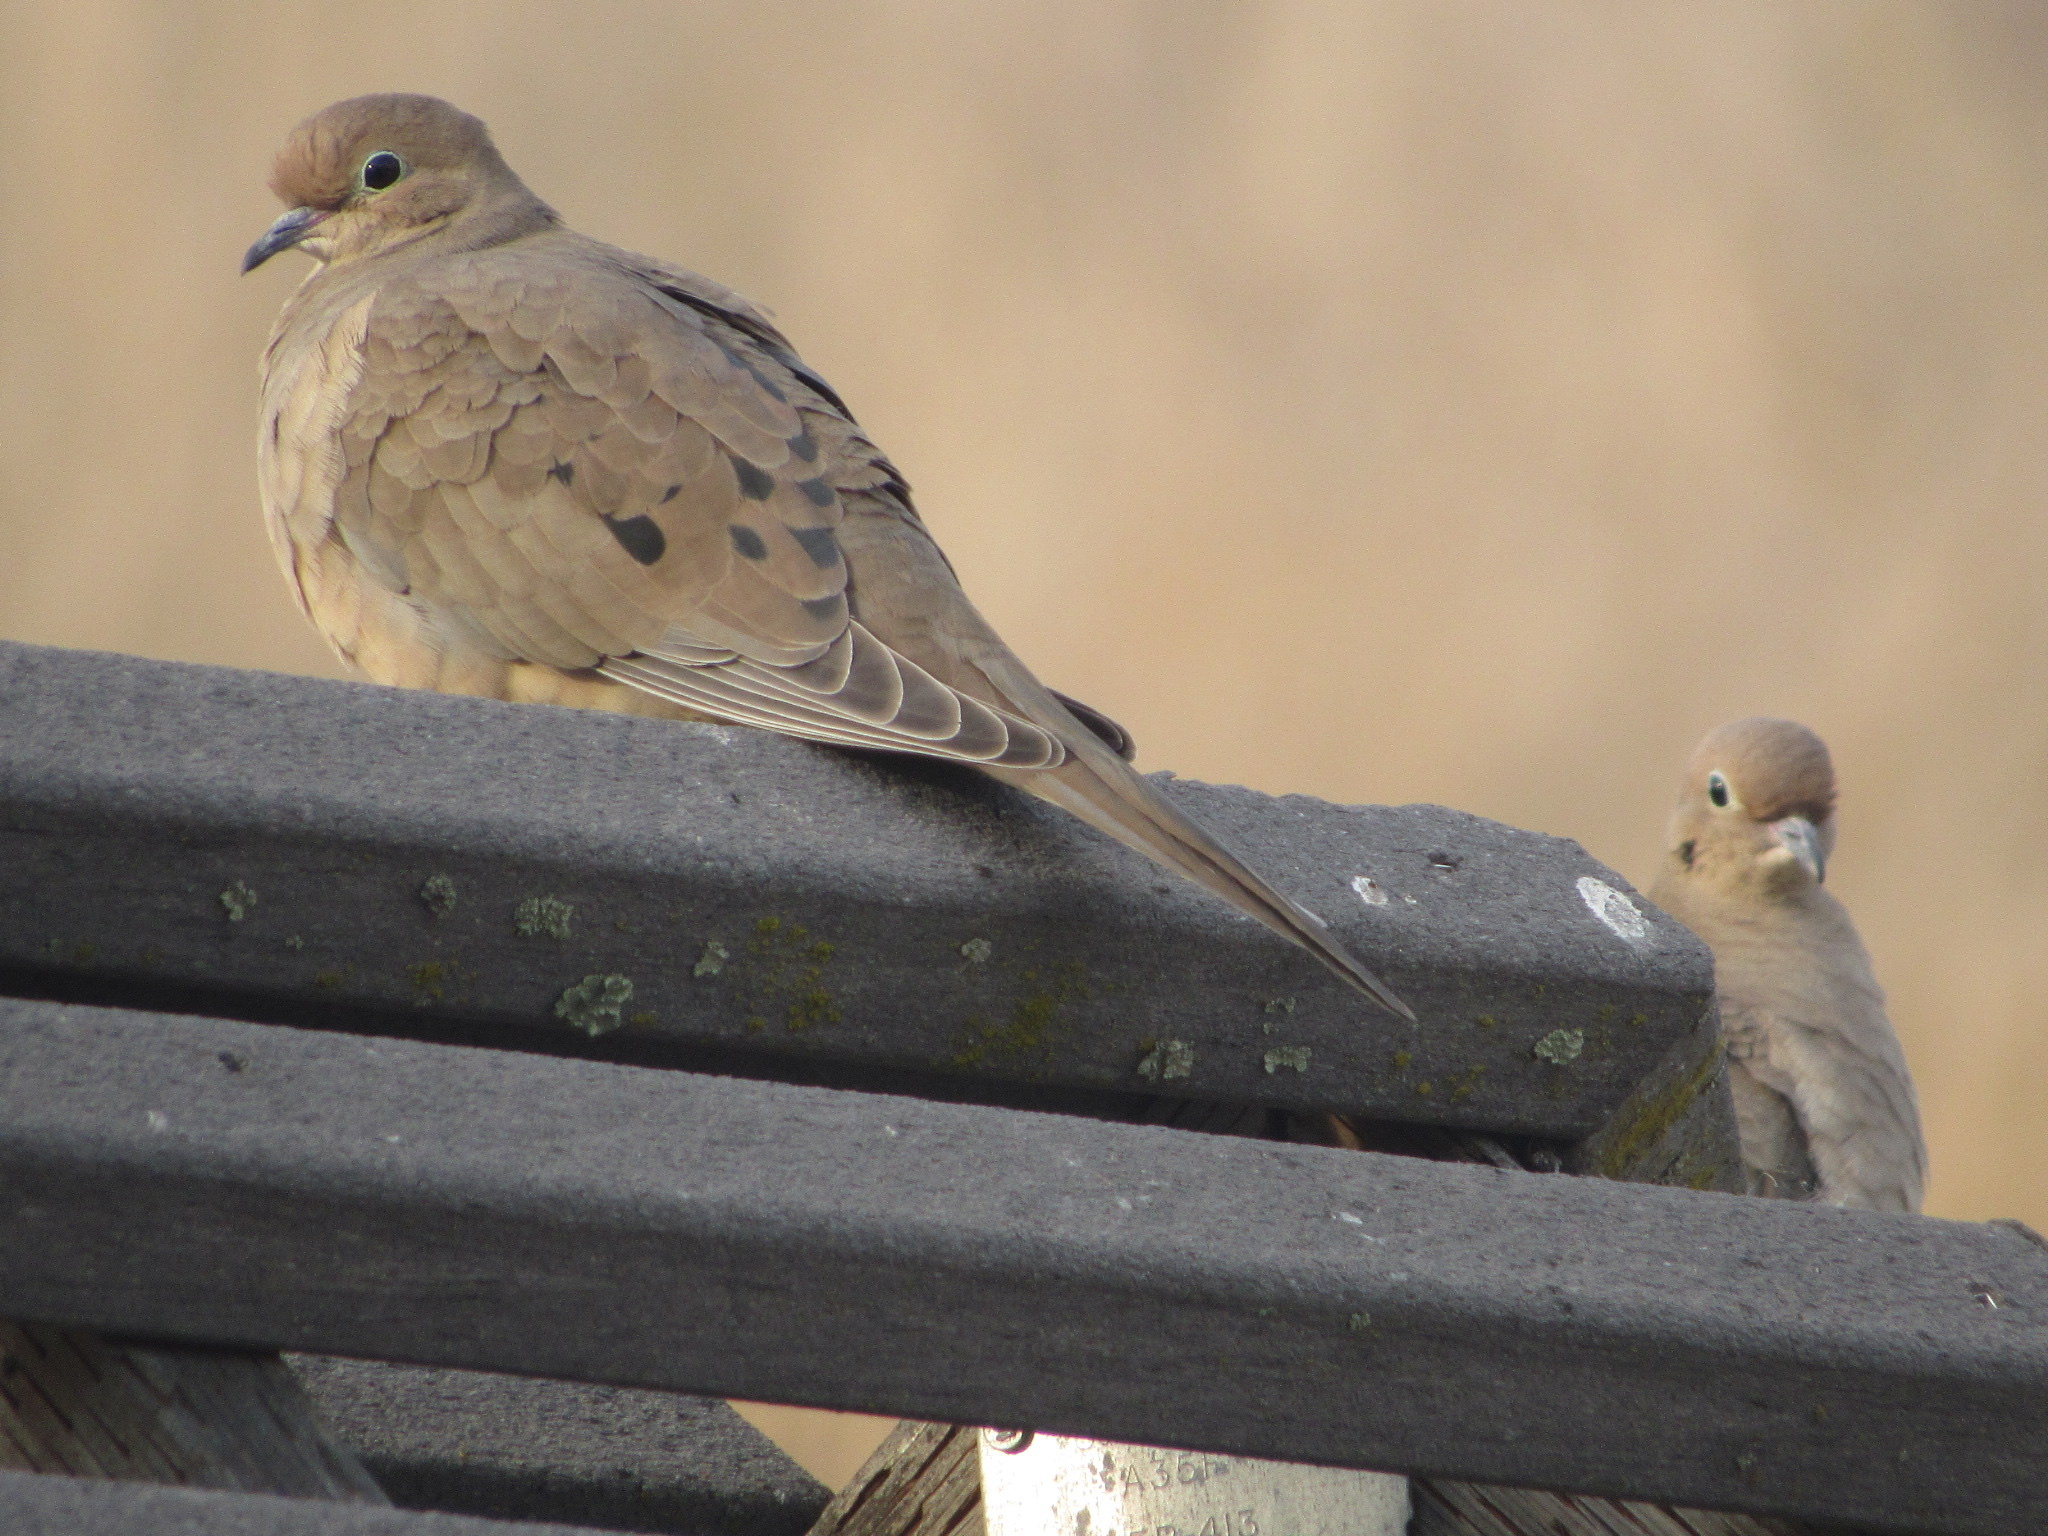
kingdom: Animalia
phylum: Chordata
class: Aves
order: Columbiformes
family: Columbidae
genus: Zenaida
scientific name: Zenaida macroura
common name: Mourning dove
